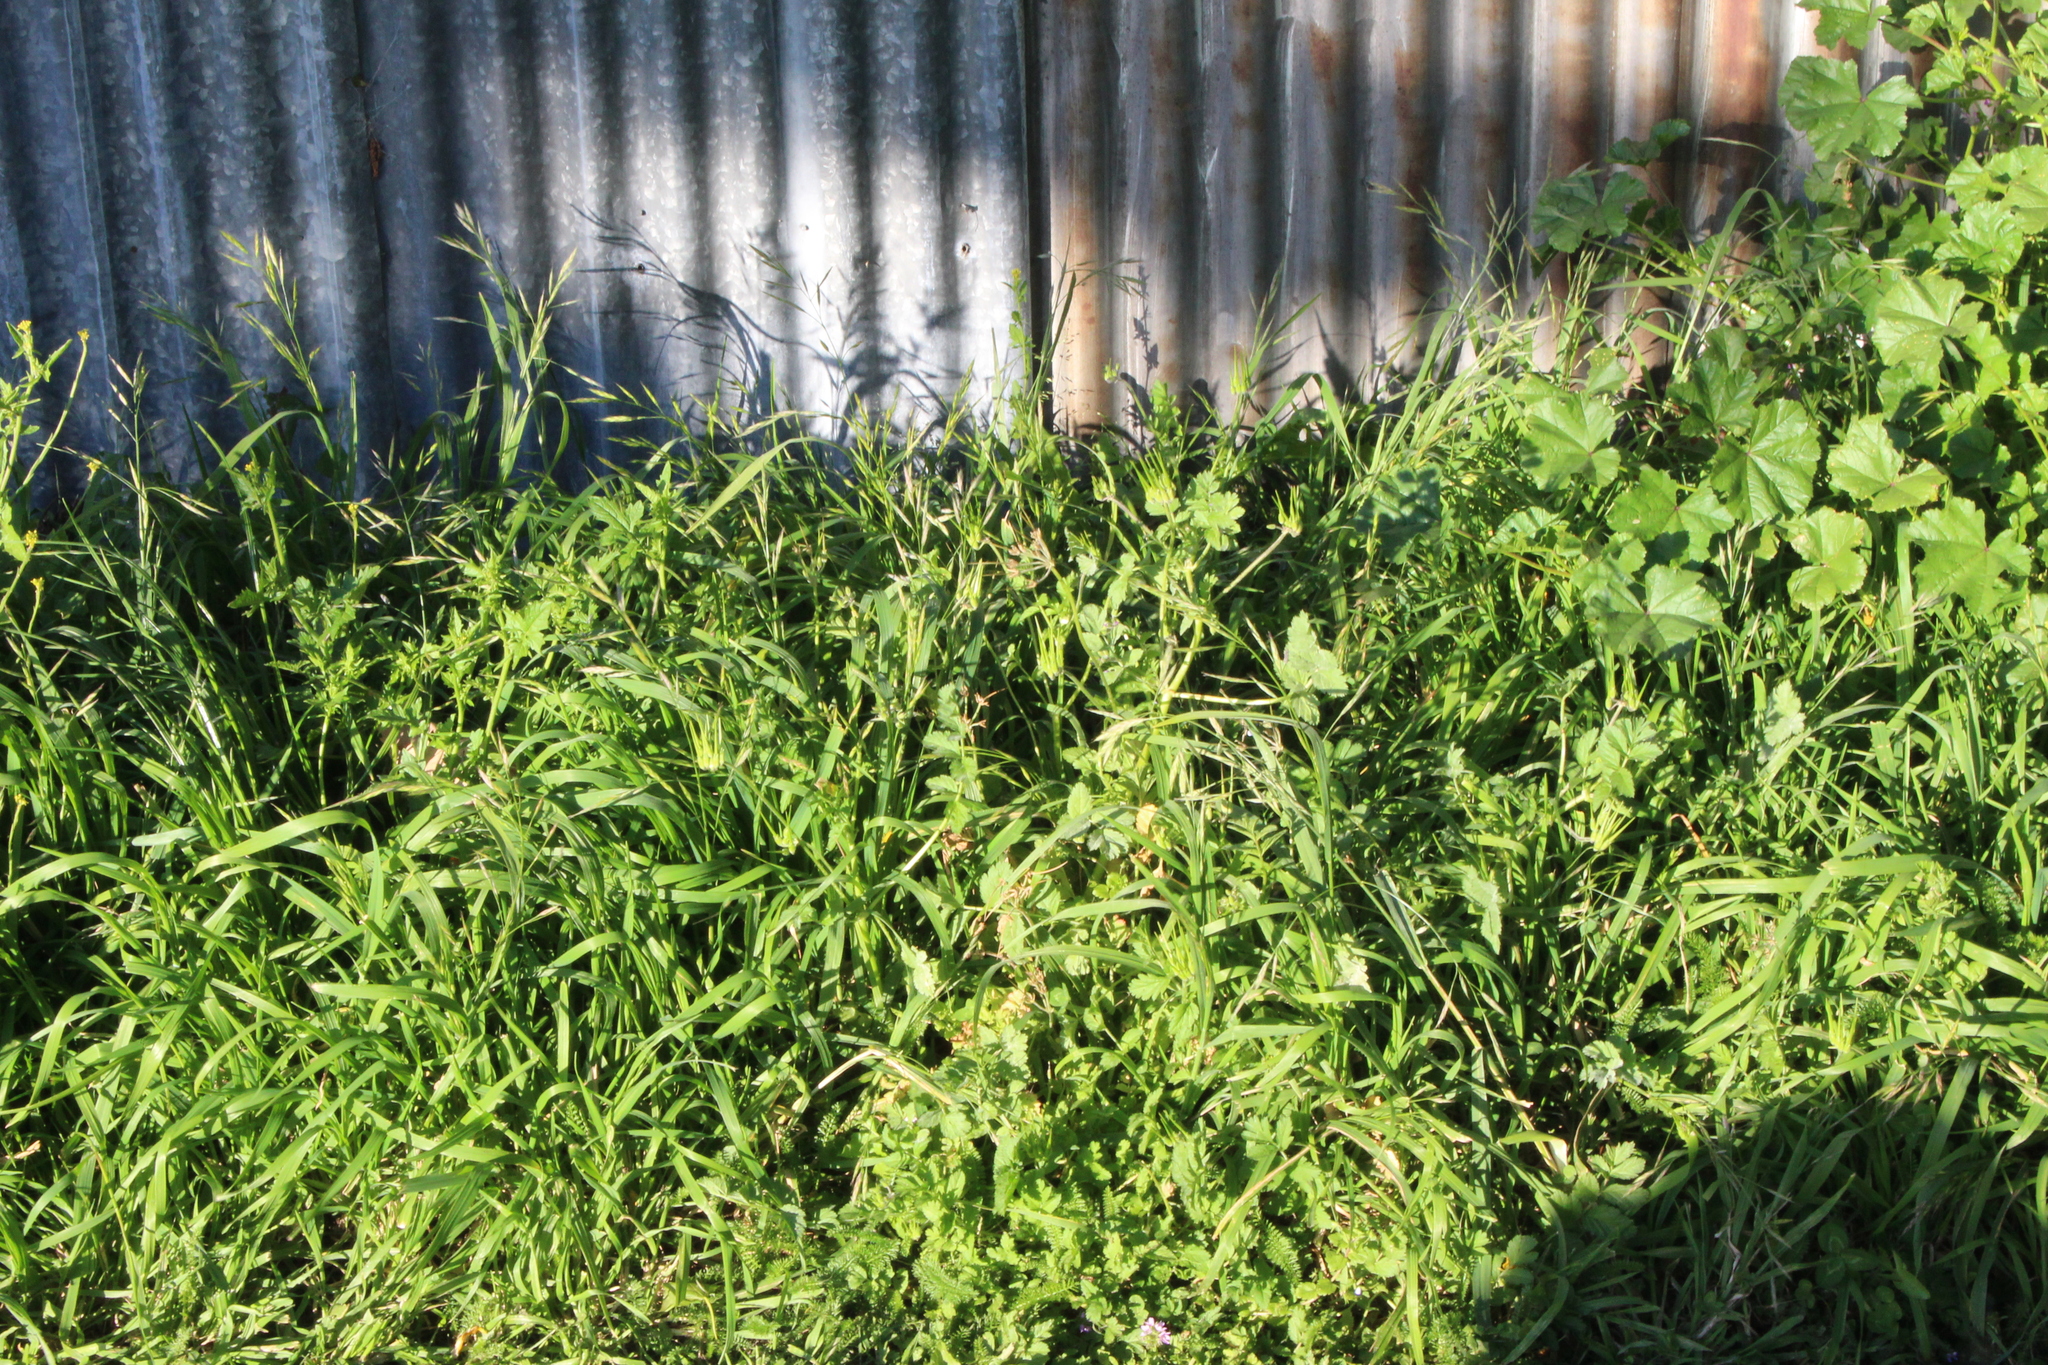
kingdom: Plantae
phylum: Tracheophyta
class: Liliopsida
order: Poales
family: Poaceae
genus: Bromus
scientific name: Bromus hordeaceus
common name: Soft brome
